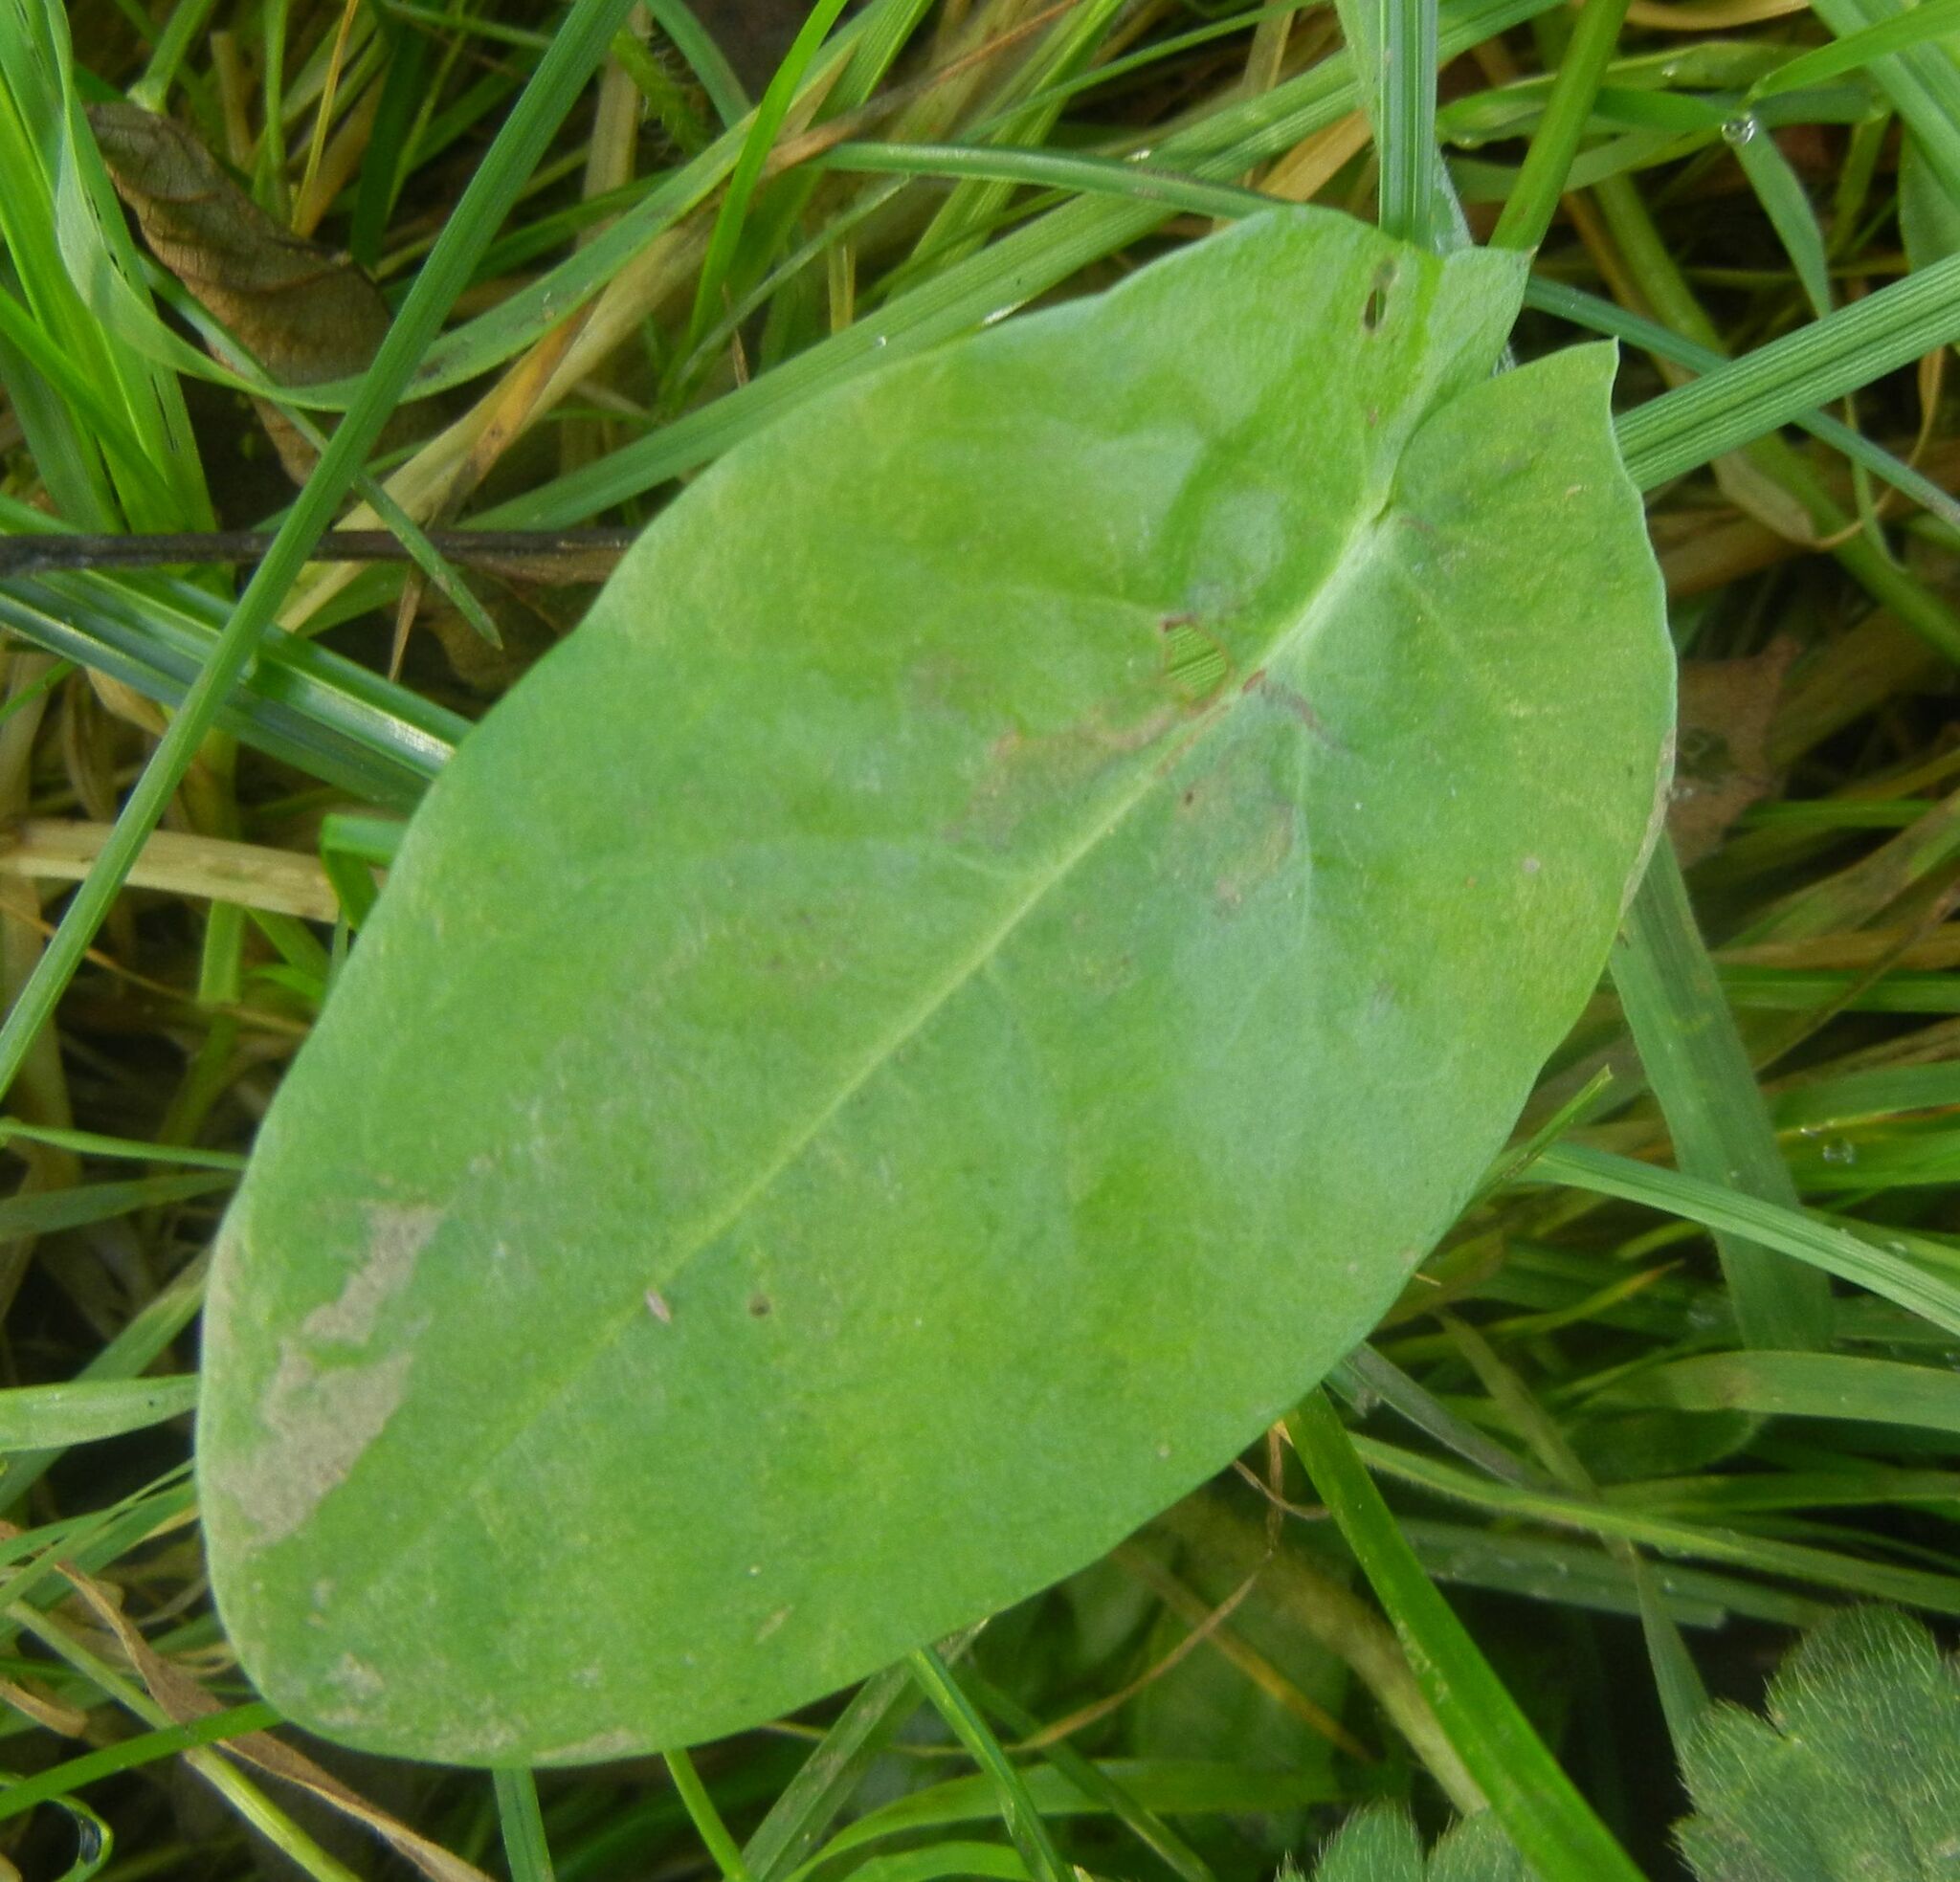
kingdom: Plantae
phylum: Tracheophyta
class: Magnoliopsida
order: Caryophyllales
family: Polygonaceae
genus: Rumex
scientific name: Rumex acetosa
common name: Garden sorrel
